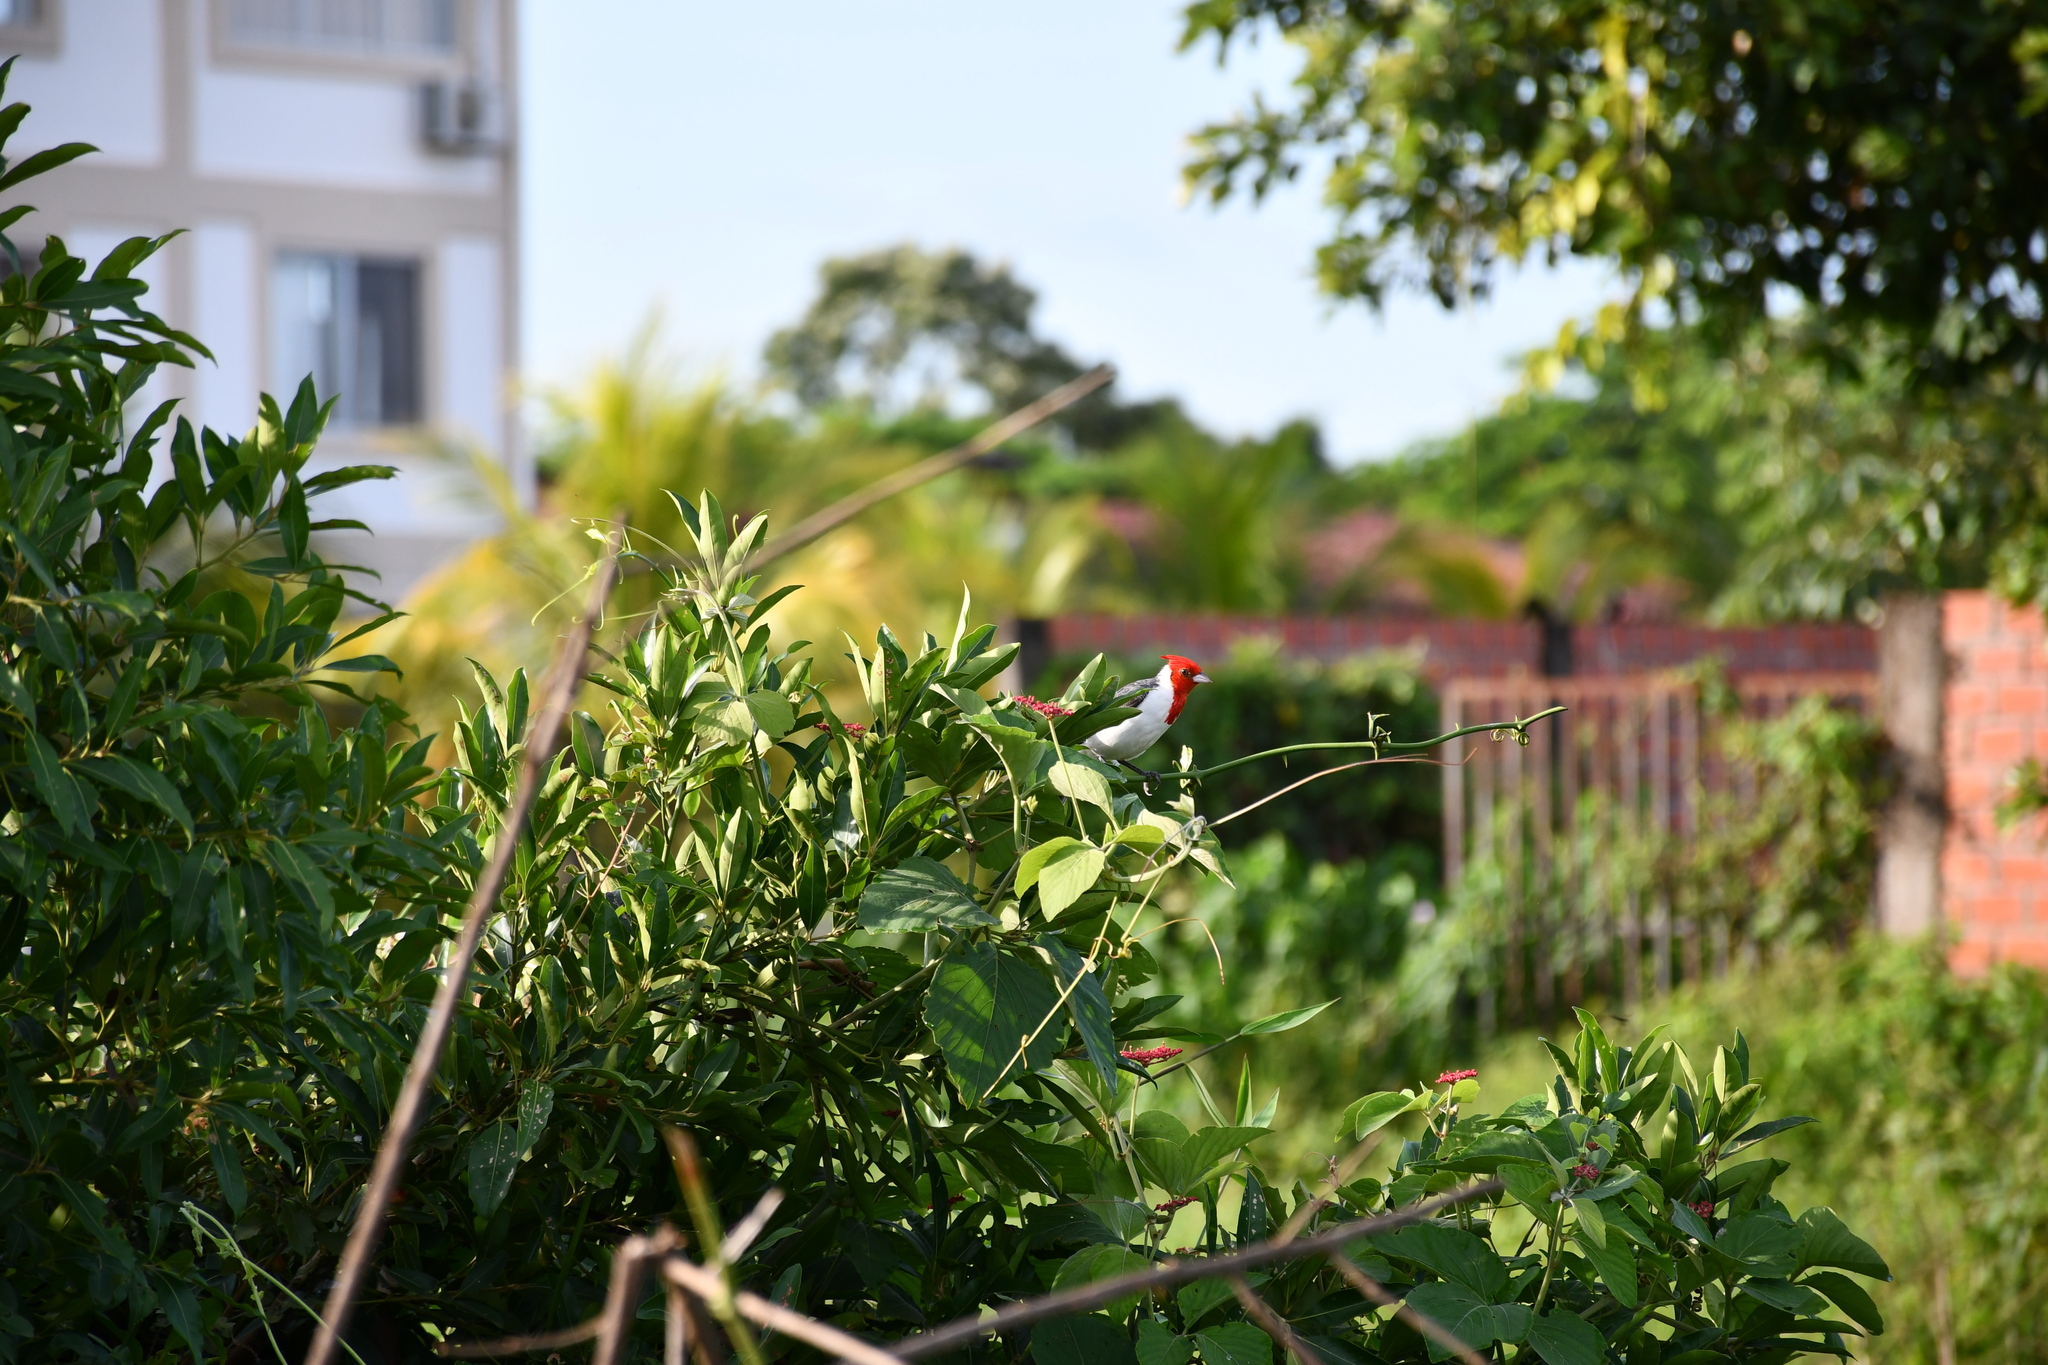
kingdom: Animalia
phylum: Chordata
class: Aves
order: Passeriformes
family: Thraupidae
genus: Paroaria
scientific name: Paroaria coronata
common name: Red-crested cardinal
